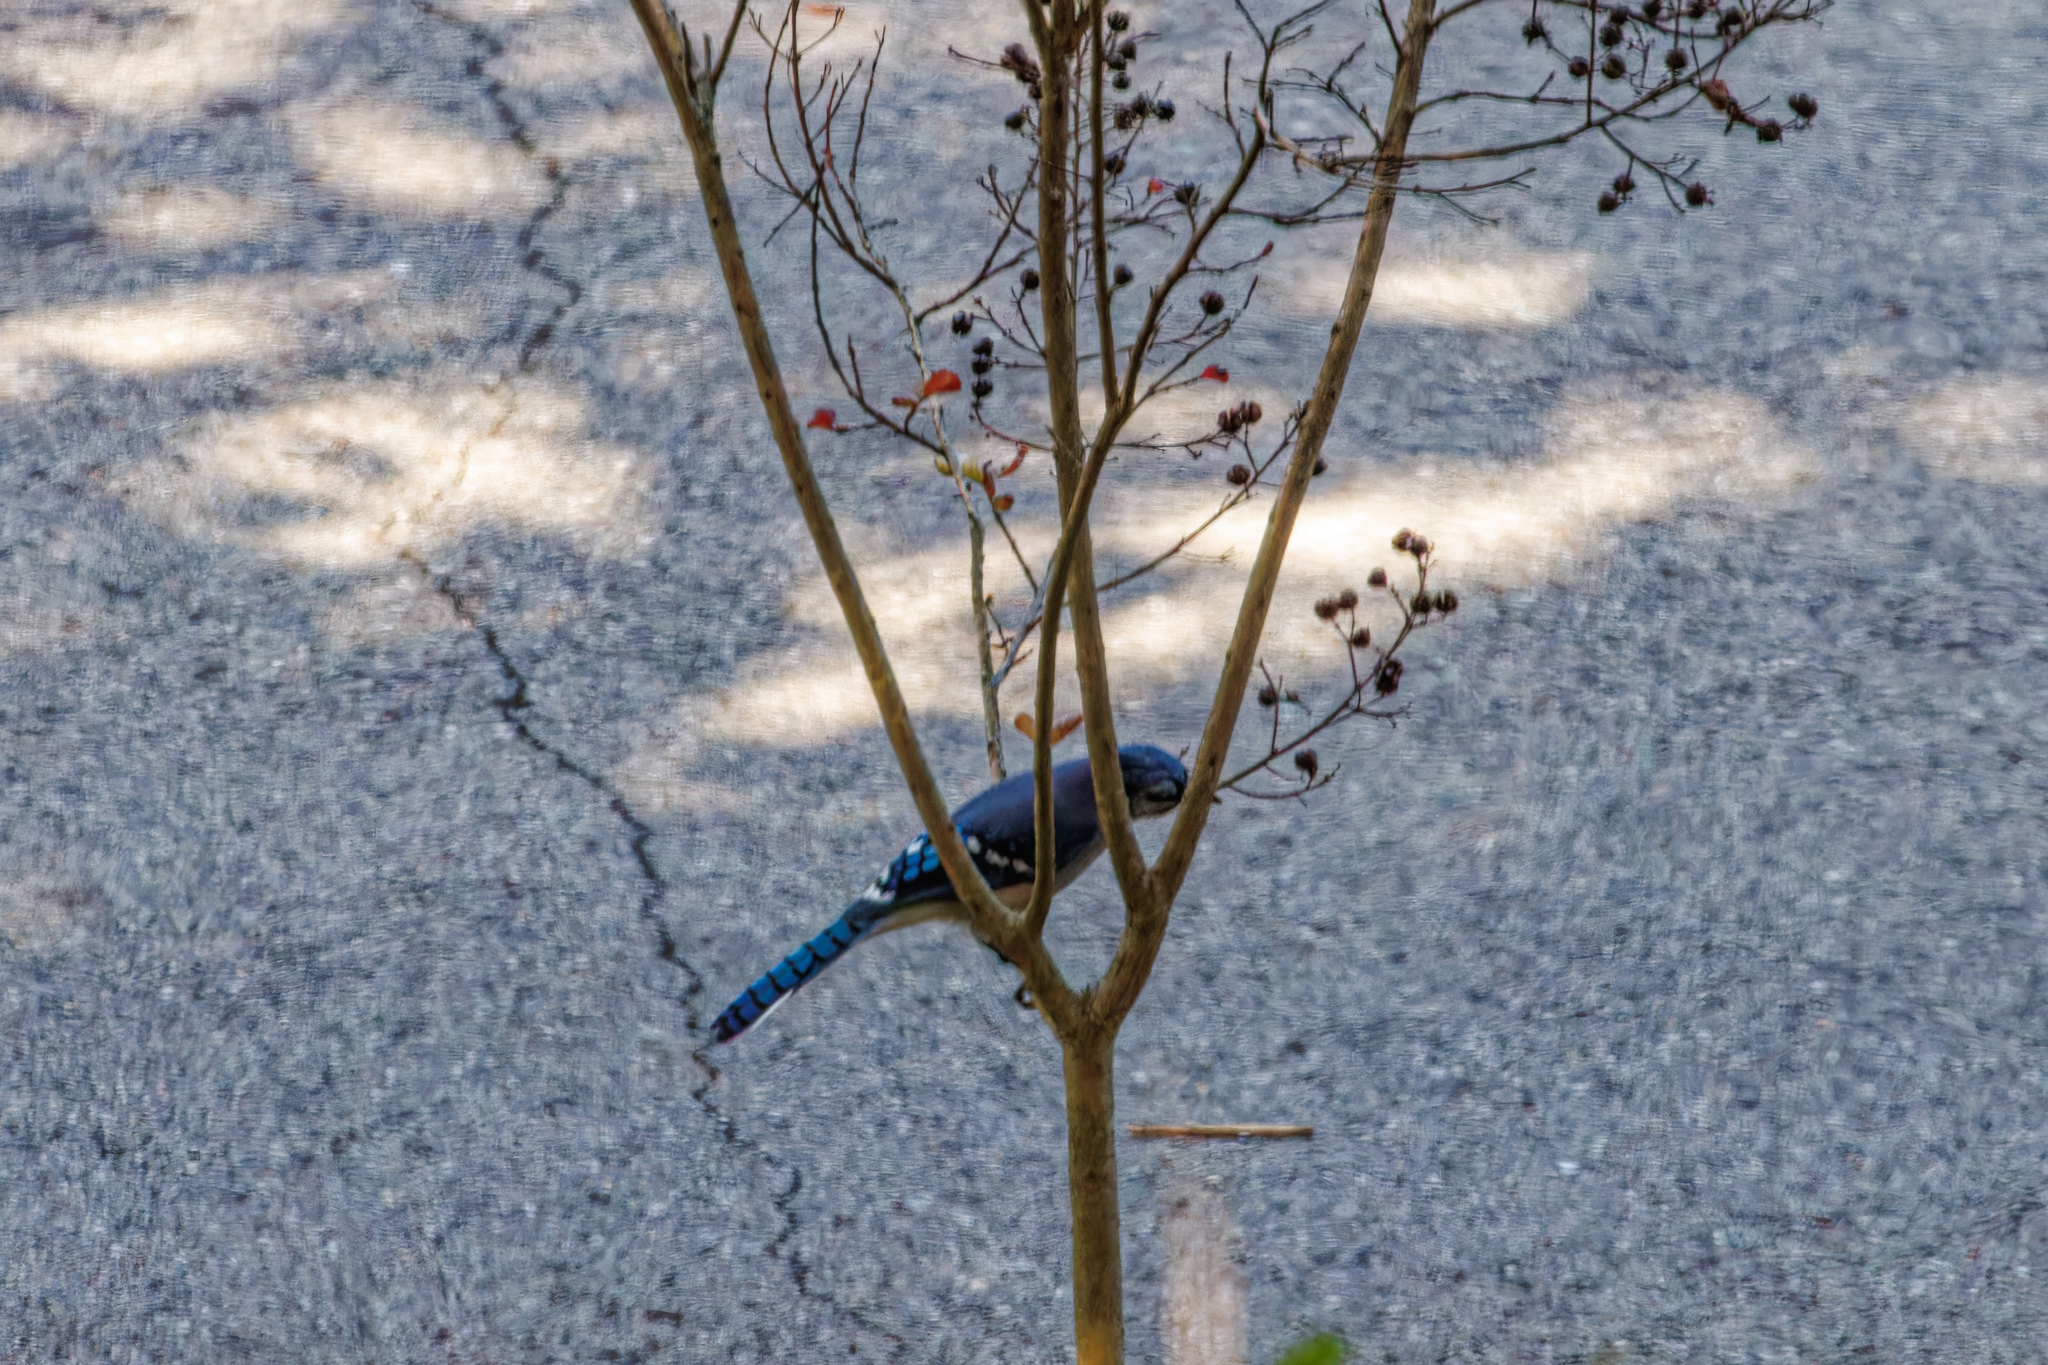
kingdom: Animalia
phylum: Chordata
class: Aves
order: Passeriformes
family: Corvidae
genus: Cyanocitta
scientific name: Cyanocitta cristata
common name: Blue jay
